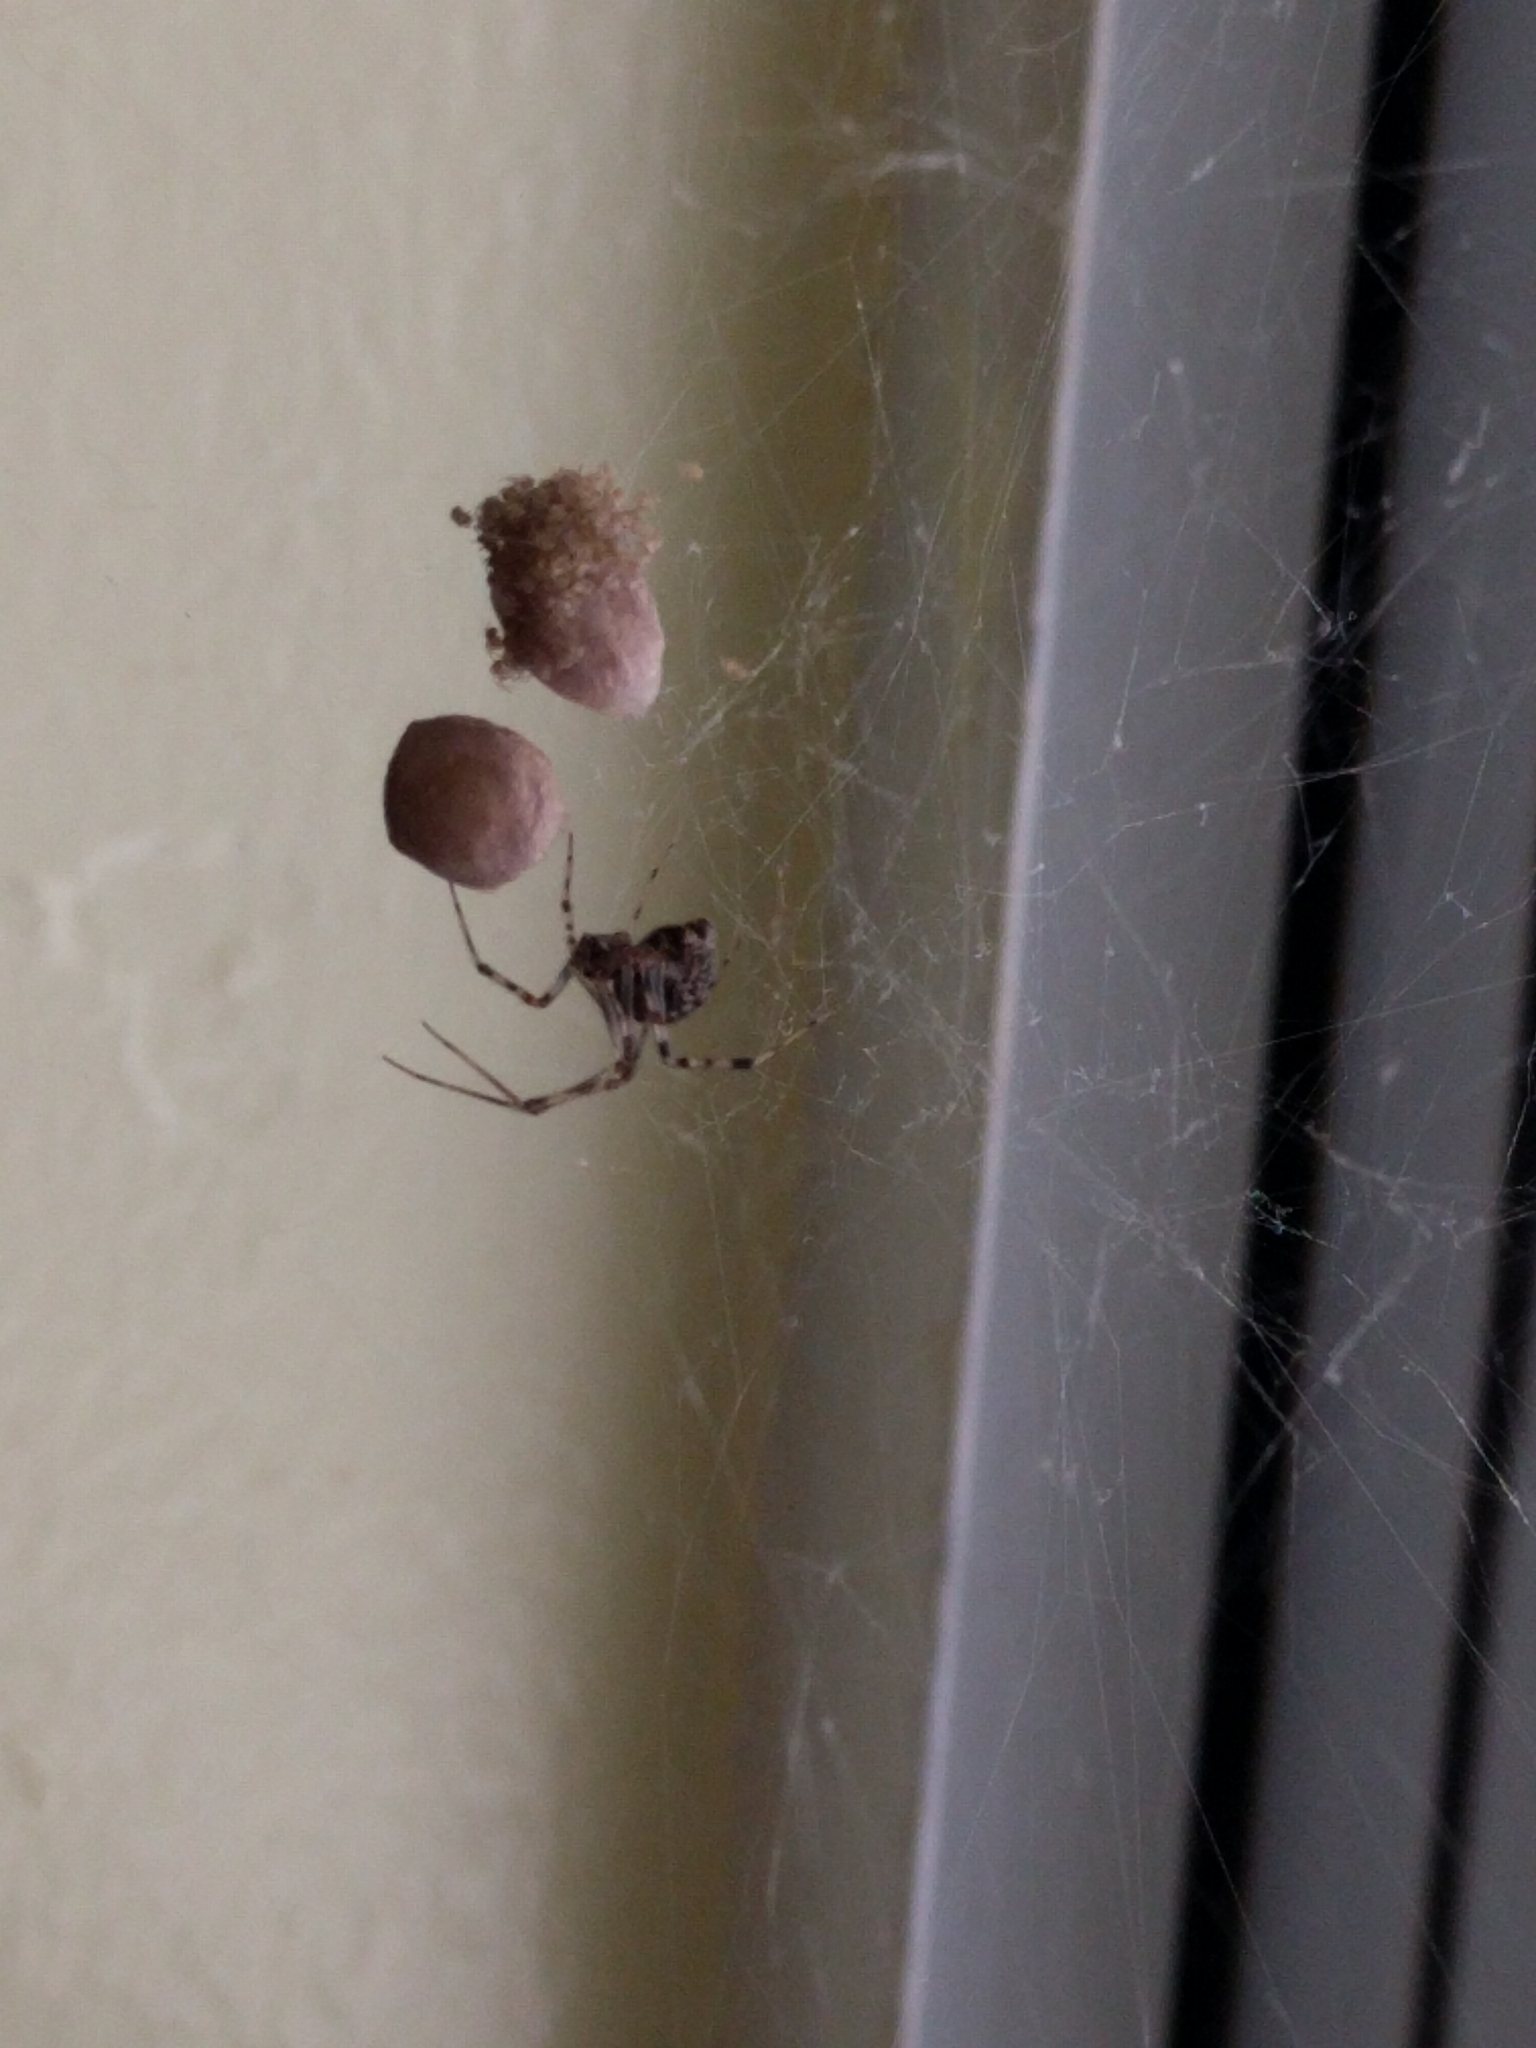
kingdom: Animalia
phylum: Arthropoda
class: Arachnida
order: Araneae
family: Theridiidae
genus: Parasteatoda
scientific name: Parasteatoda tepidariorum
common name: Common house spider
